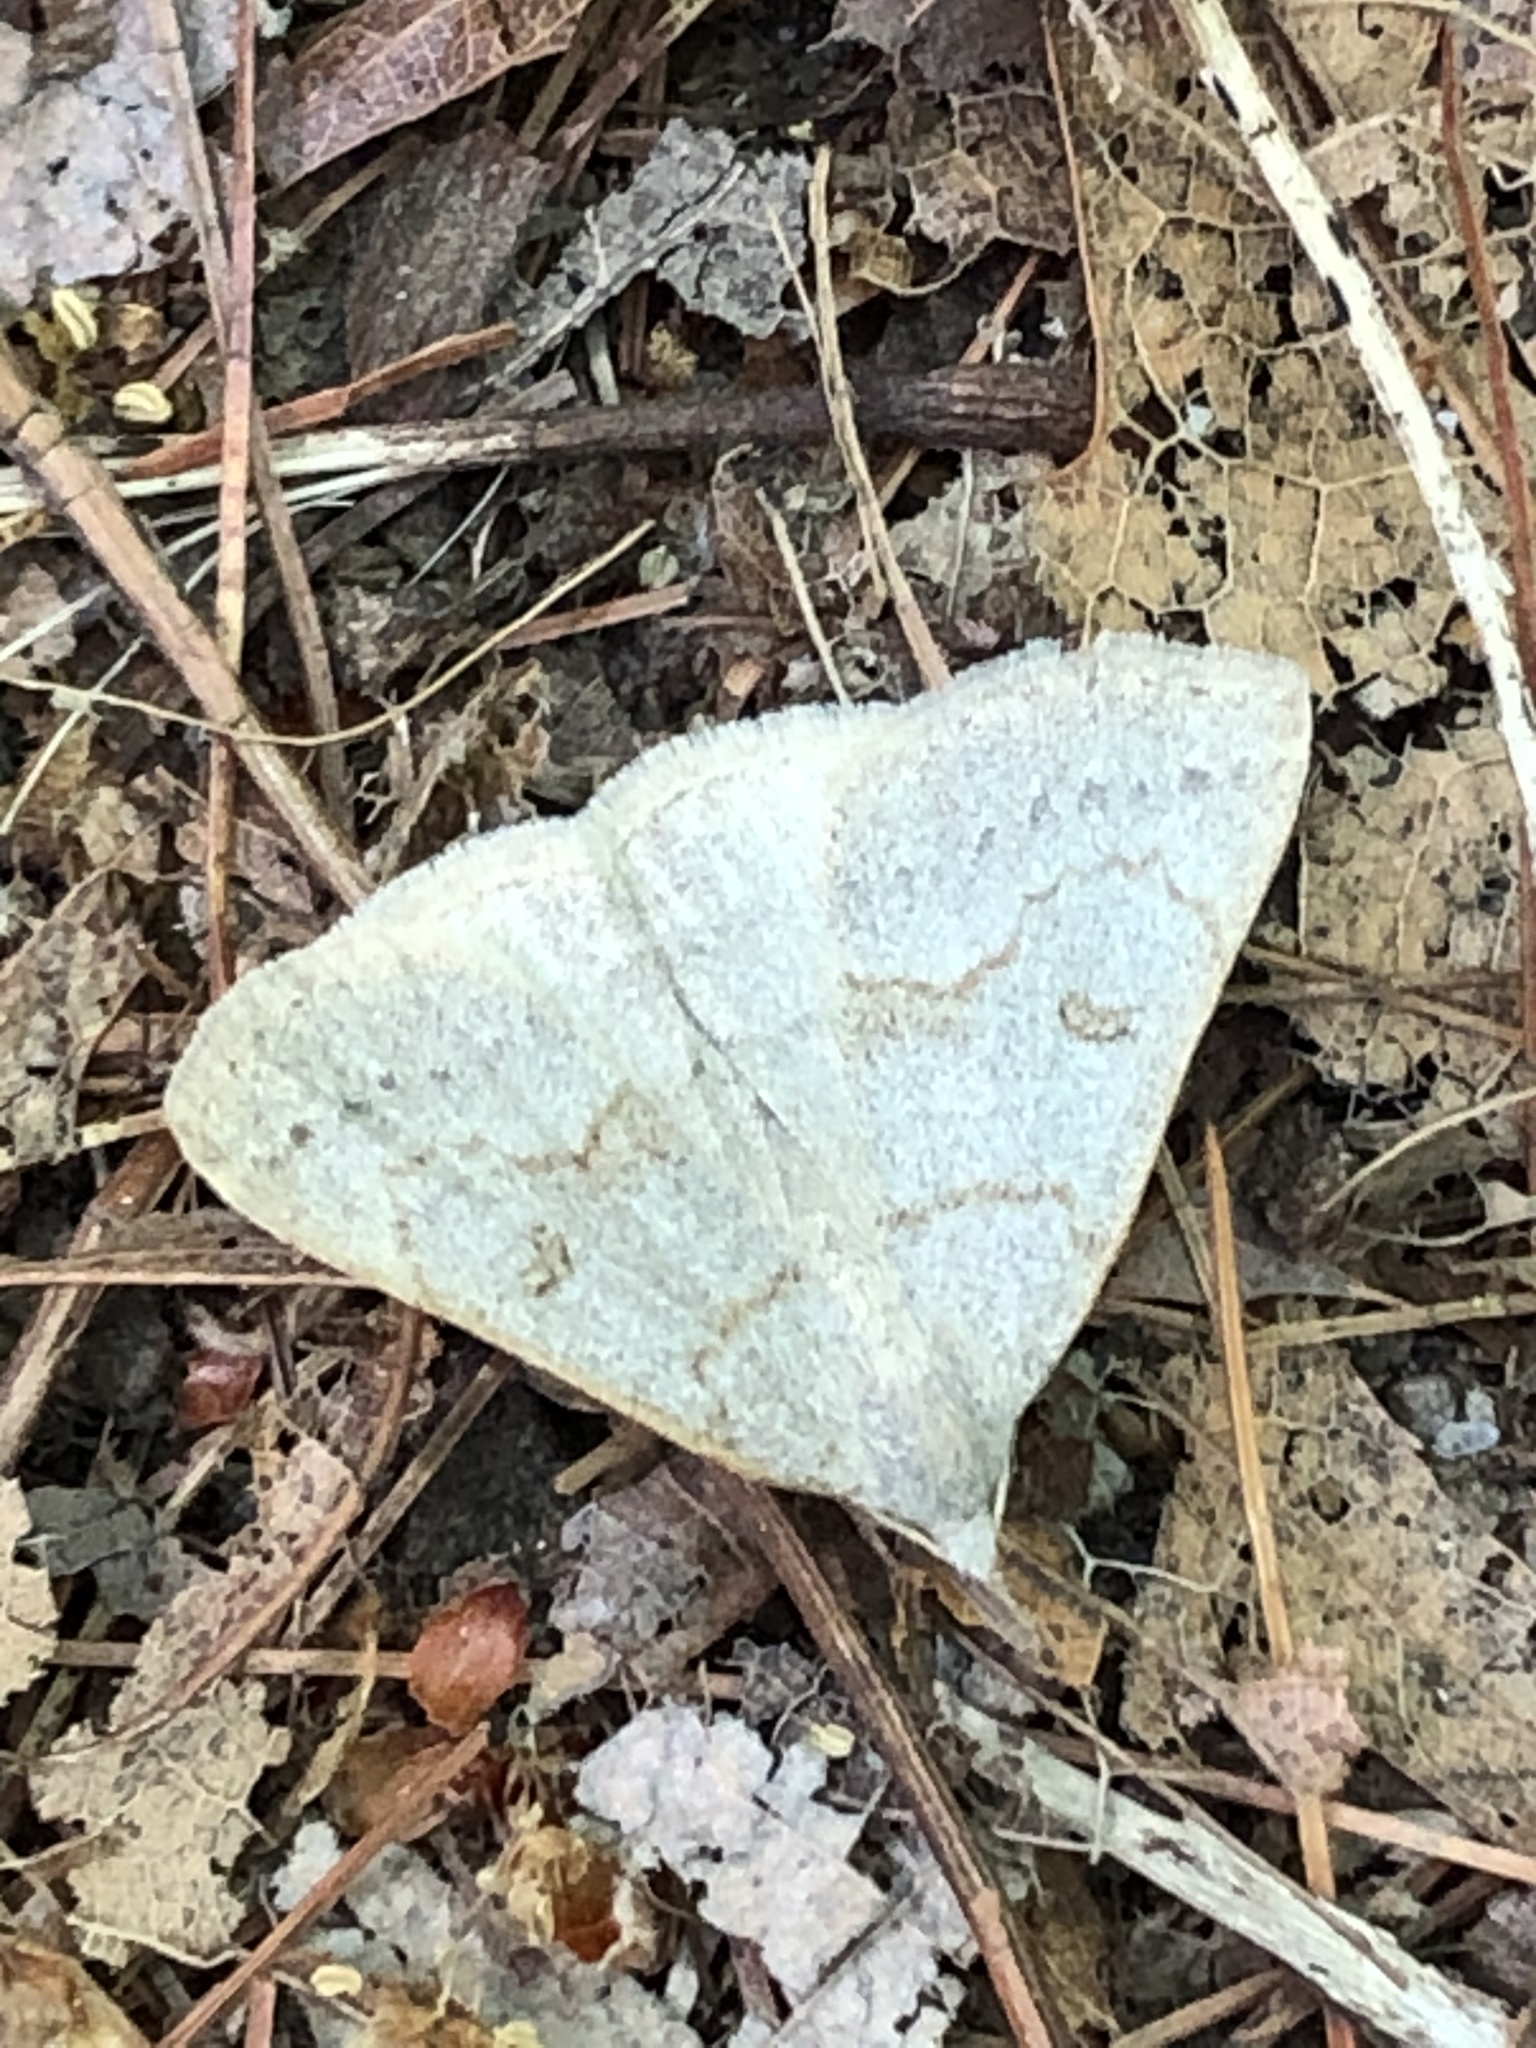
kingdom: Animalia
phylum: Arthropoda
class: Insecta
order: Lepidoptera
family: Erebidae
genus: Macrochilo
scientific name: Macrochilo morbidalis
